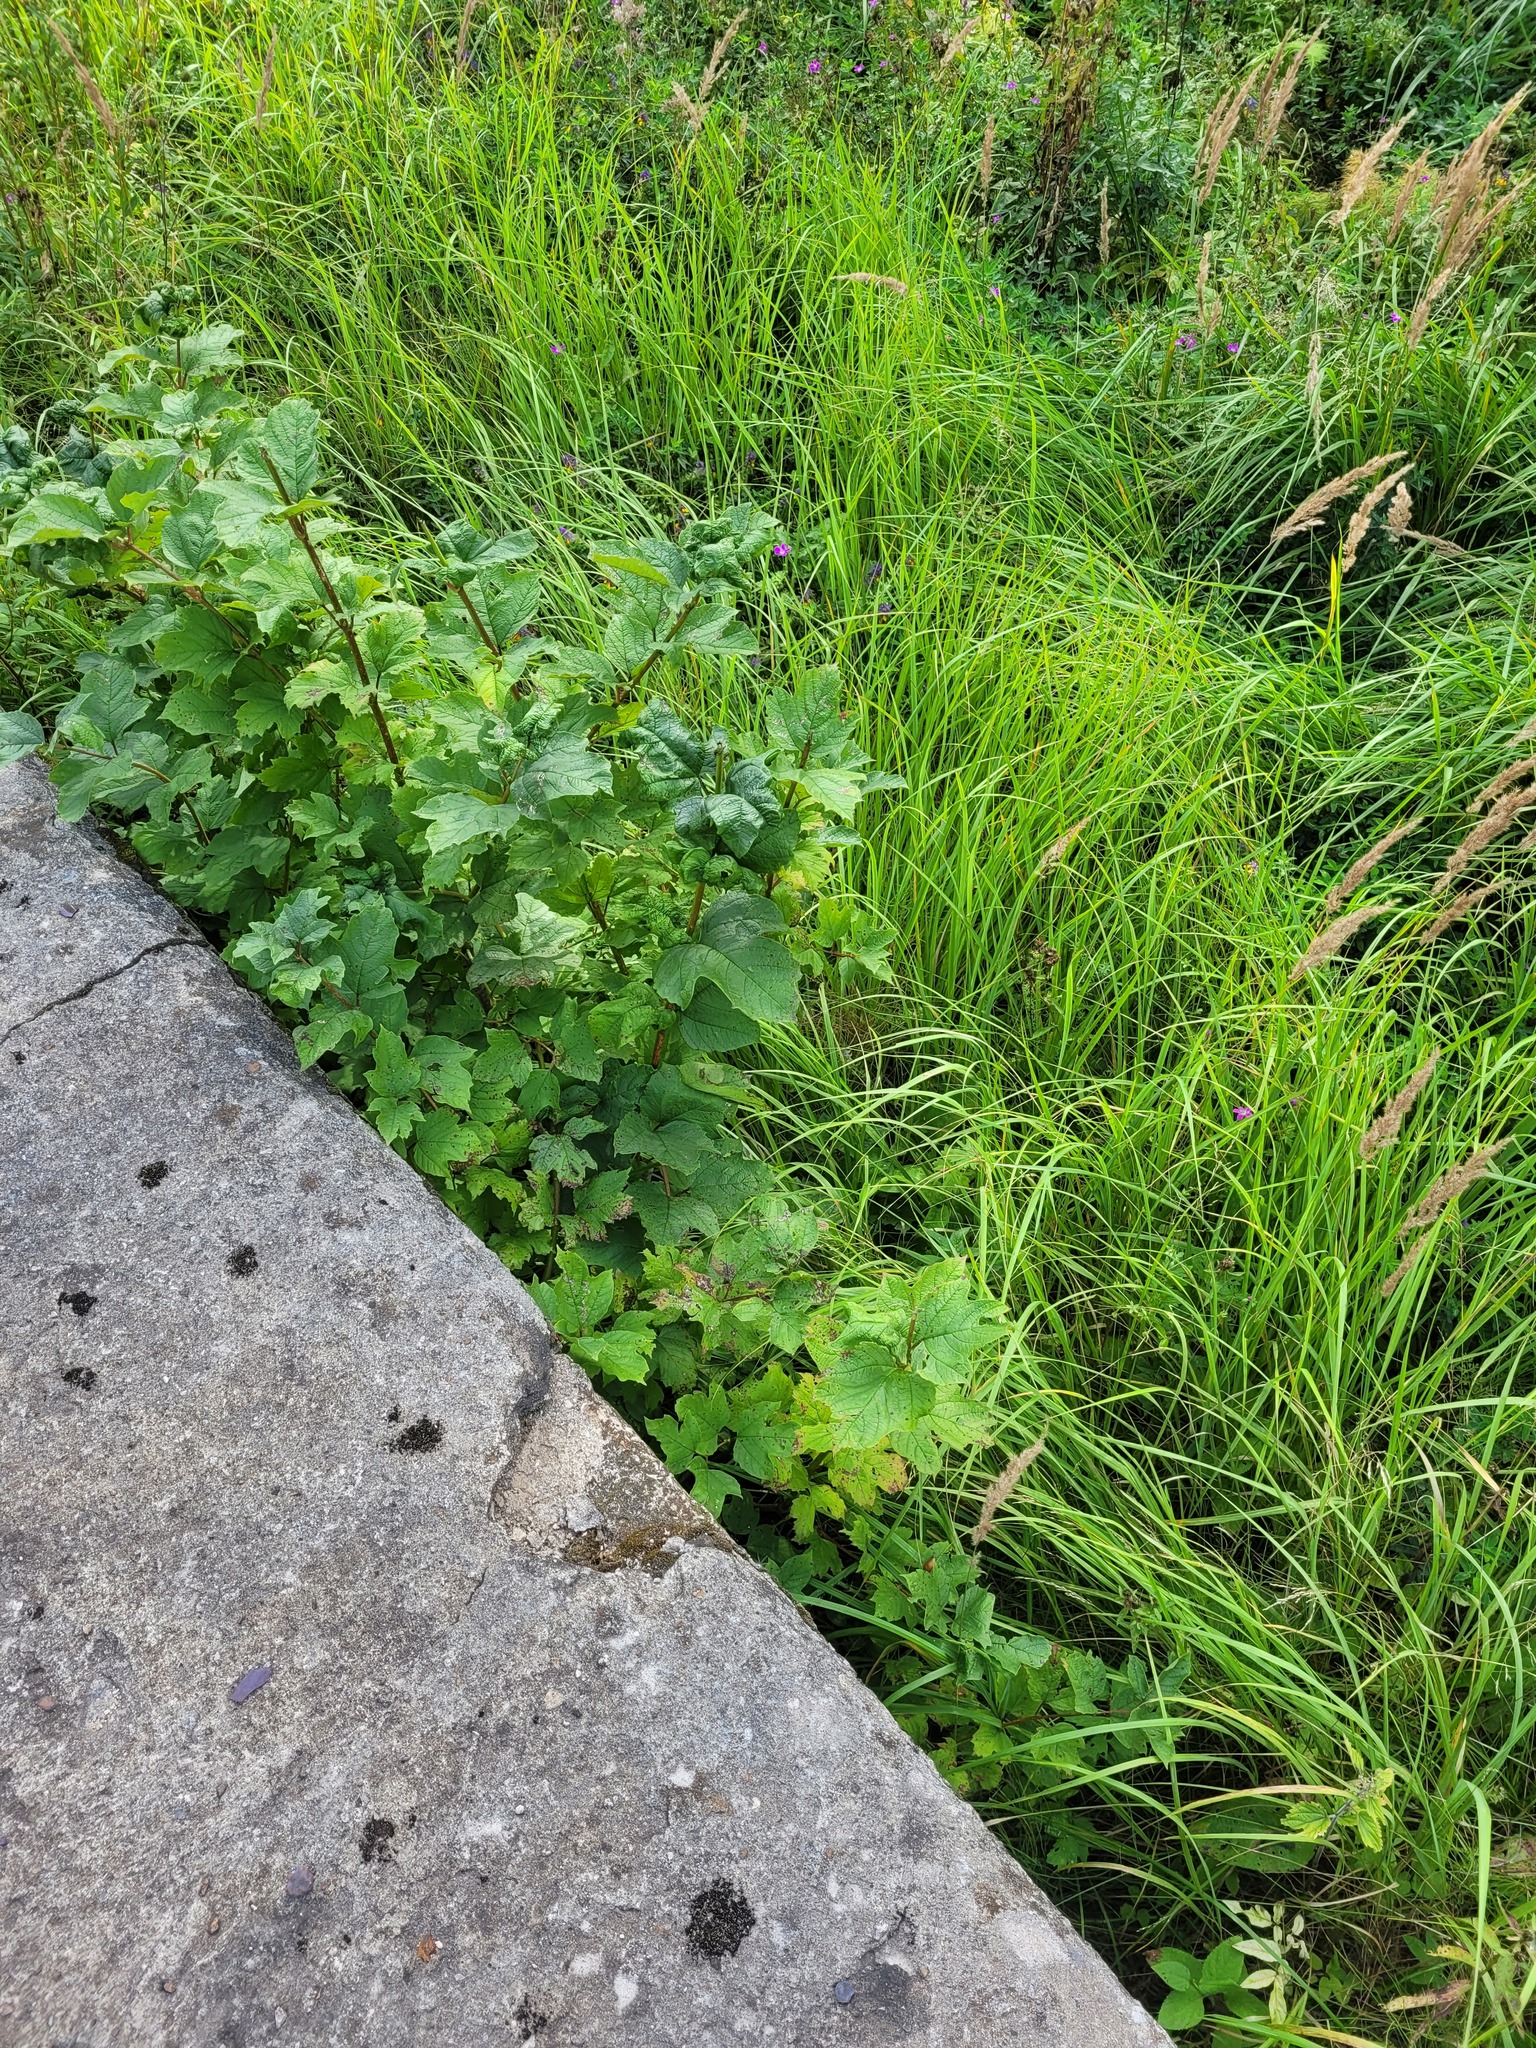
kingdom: Plantae
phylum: Tracheophyta
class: Magnoliopsida
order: Dipsacales
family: Viburnaceae
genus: Viburnum
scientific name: Viburnum opulus
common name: Guelder-rose
